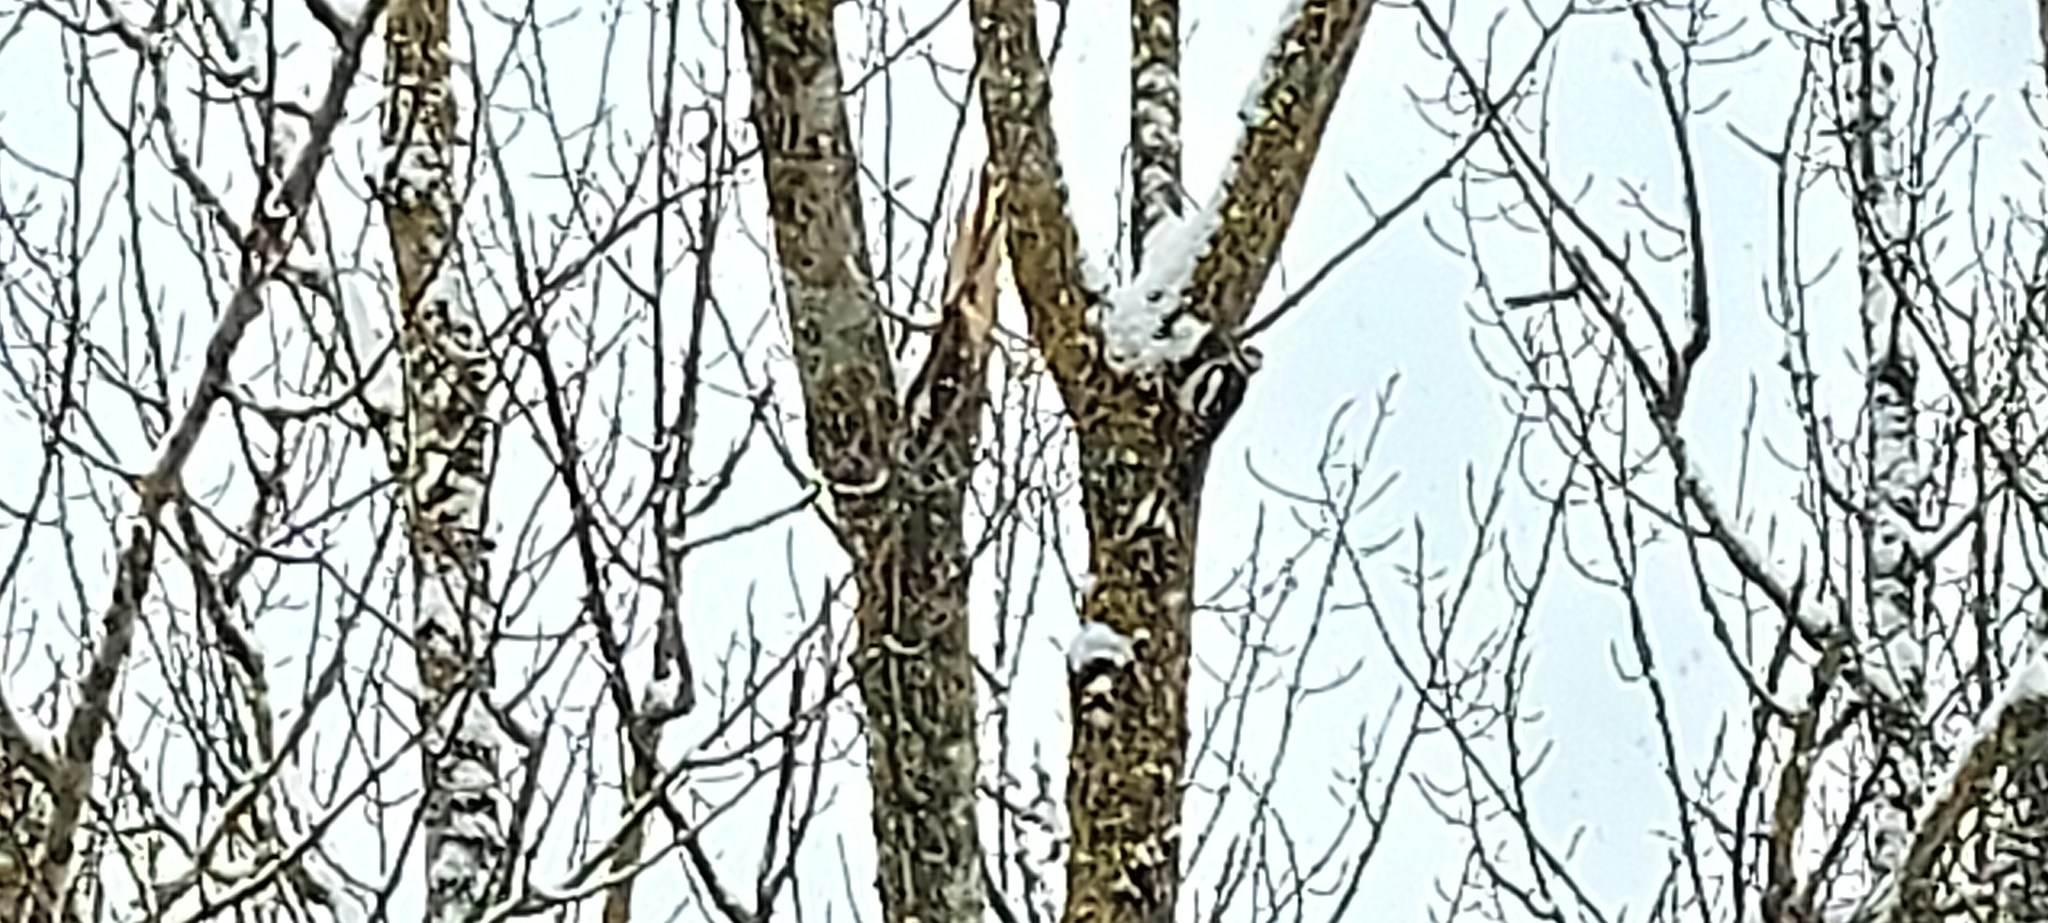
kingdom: Animalia
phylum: Chordata
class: Aves
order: Piciformes
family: Picidae
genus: Dendrocopos
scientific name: Dendrocopos major
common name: Great spotted woodpecker
